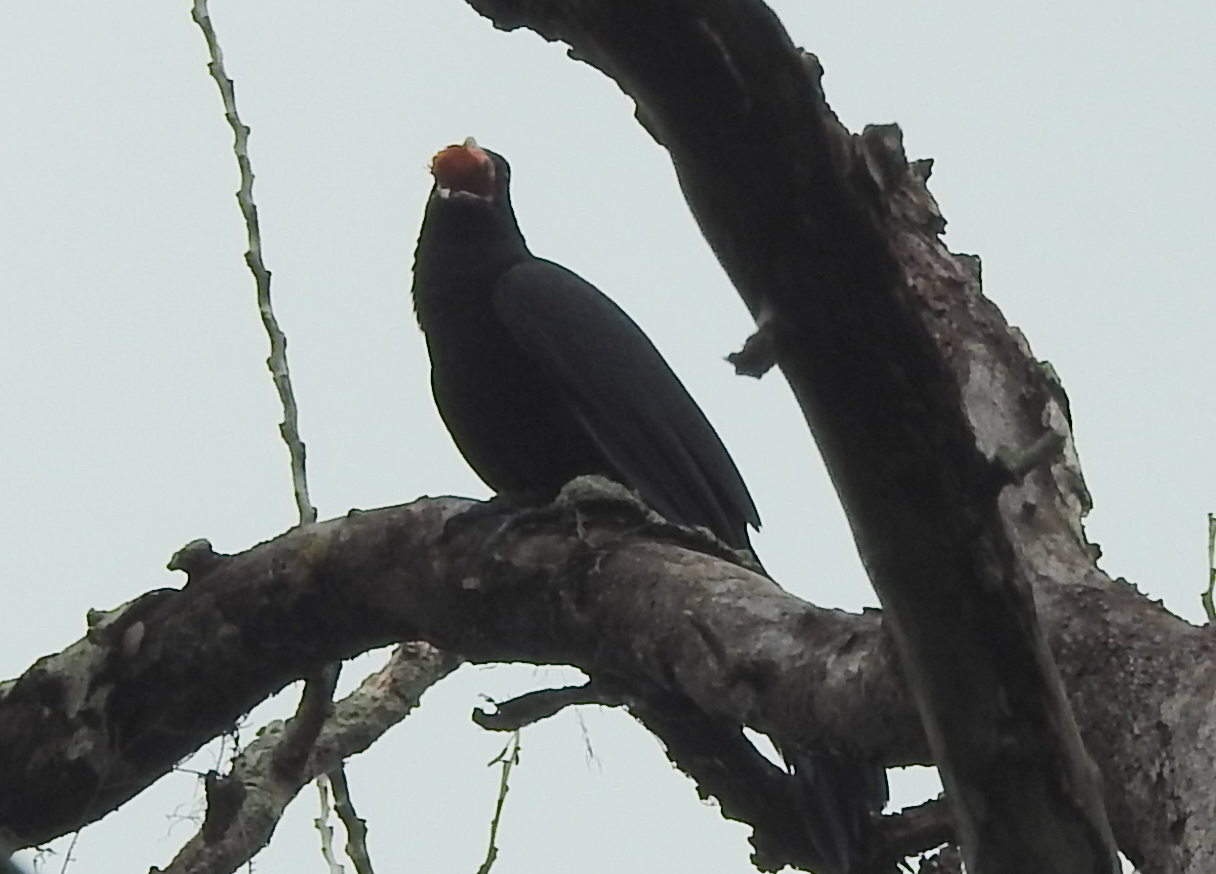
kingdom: Animalia
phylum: Chordata
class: Aves
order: Cuculiformes
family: Cuculidae
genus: Eudynamys
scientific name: Eudynamys scolopaceus
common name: Asian koel
